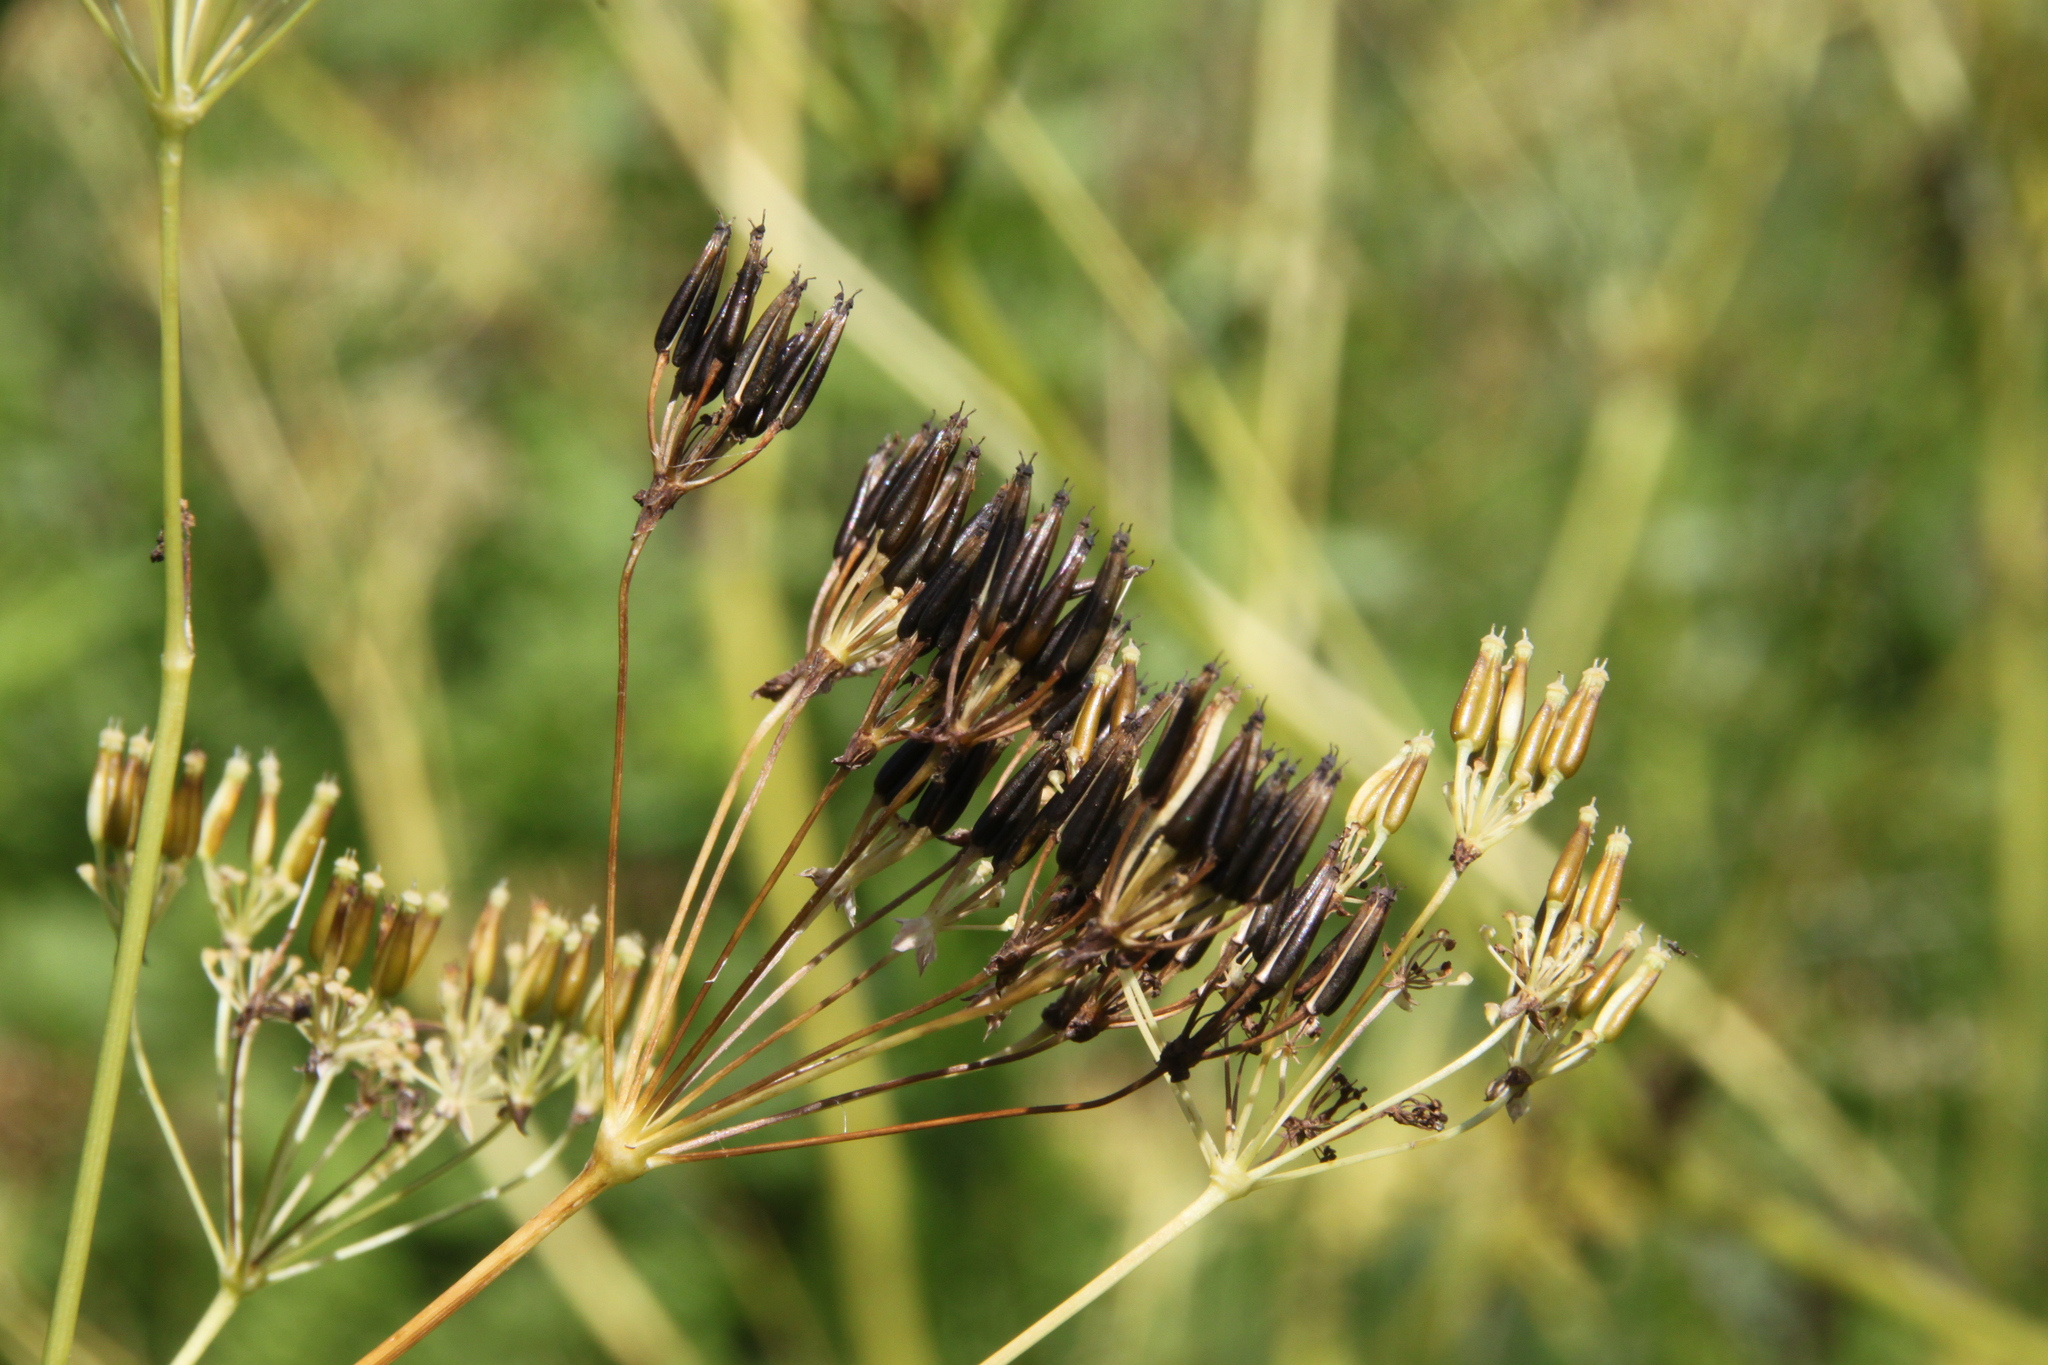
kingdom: Plantae
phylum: Tracheophyta
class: Magnoliopsida
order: Apiales
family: Apiaceae
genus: Anthriscus
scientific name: Anthriscus sylvestris
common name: Cow parsley
